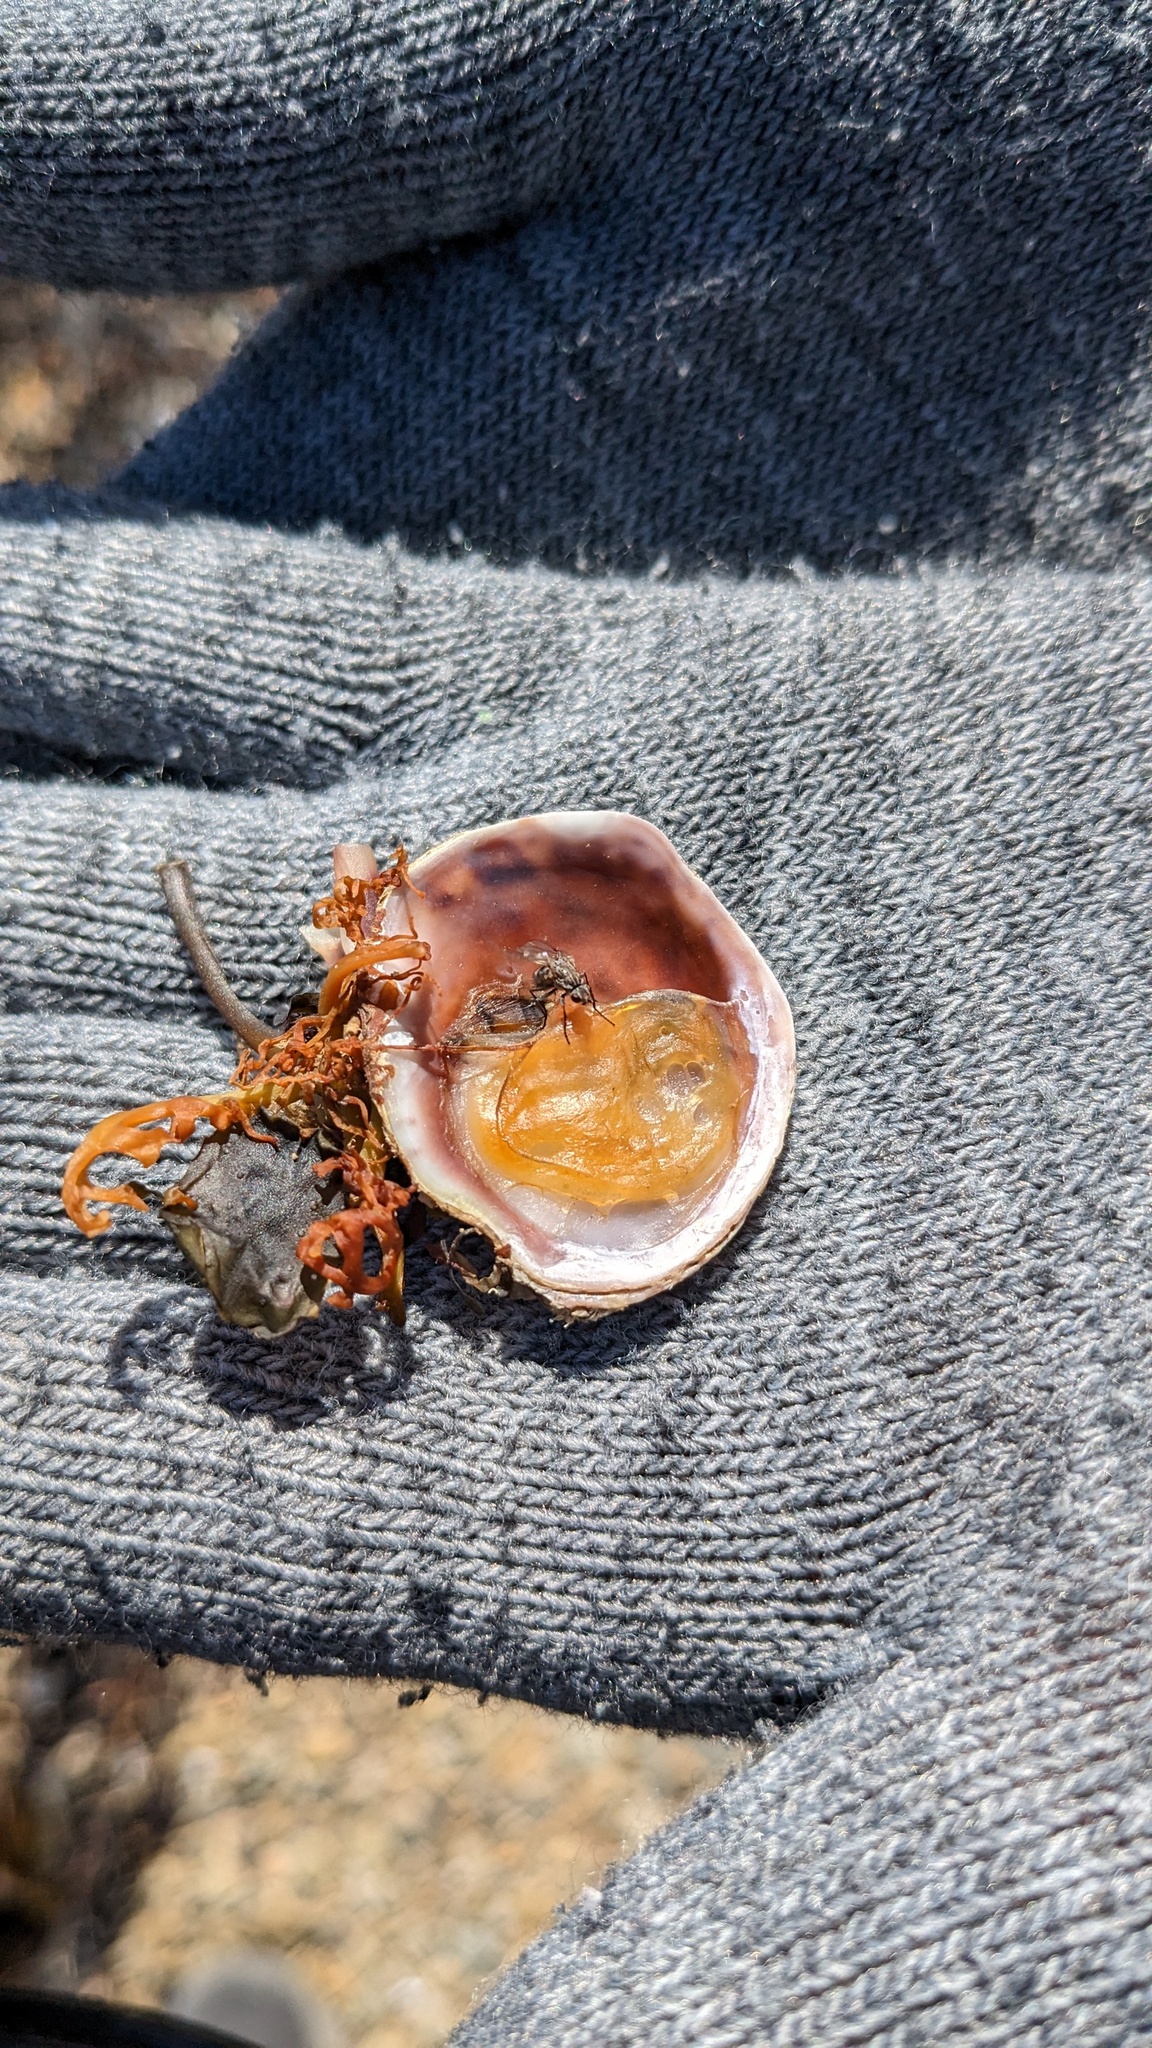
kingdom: Animalia
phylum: Mollusca
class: Gastropoda
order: Littorinimorpha
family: Calyptraeidae
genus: Crepidula
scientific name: Crepidula fornicata
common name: Slipper limpet
